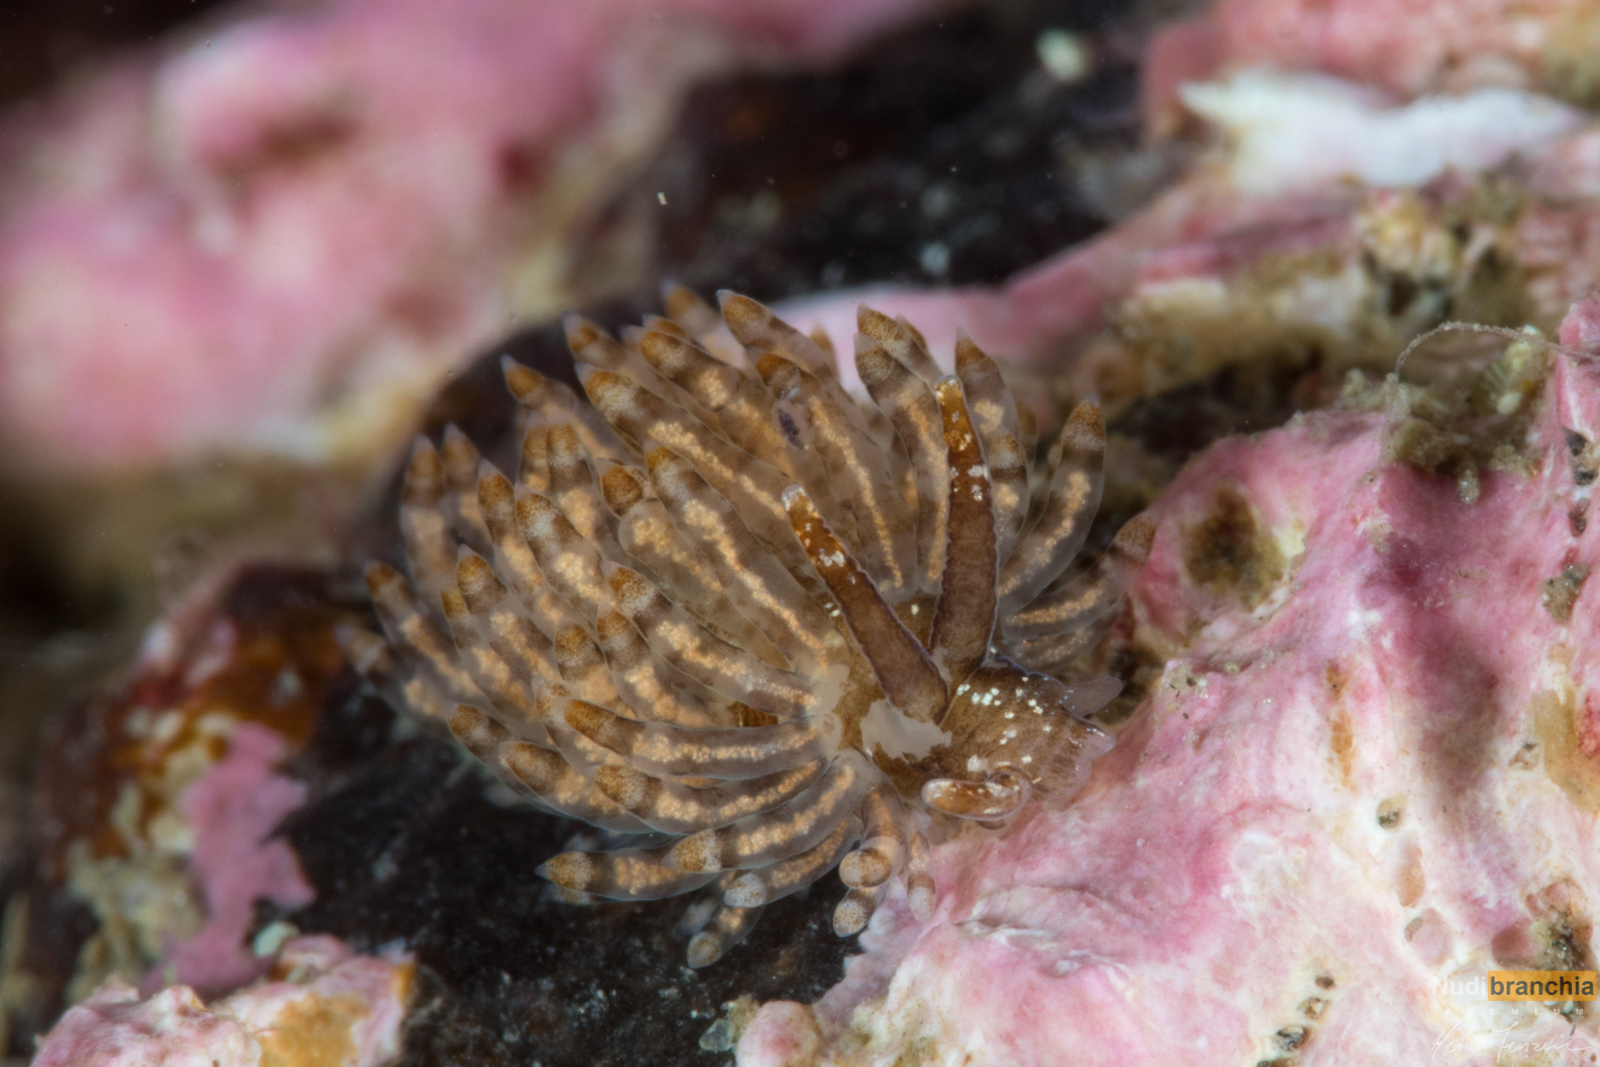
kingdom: Animalia
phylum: Mollusca
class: Gastropoda
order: Nudibranchia
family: Eubranchidae
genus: Eubranchus
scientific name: Eubranchus vittatus
